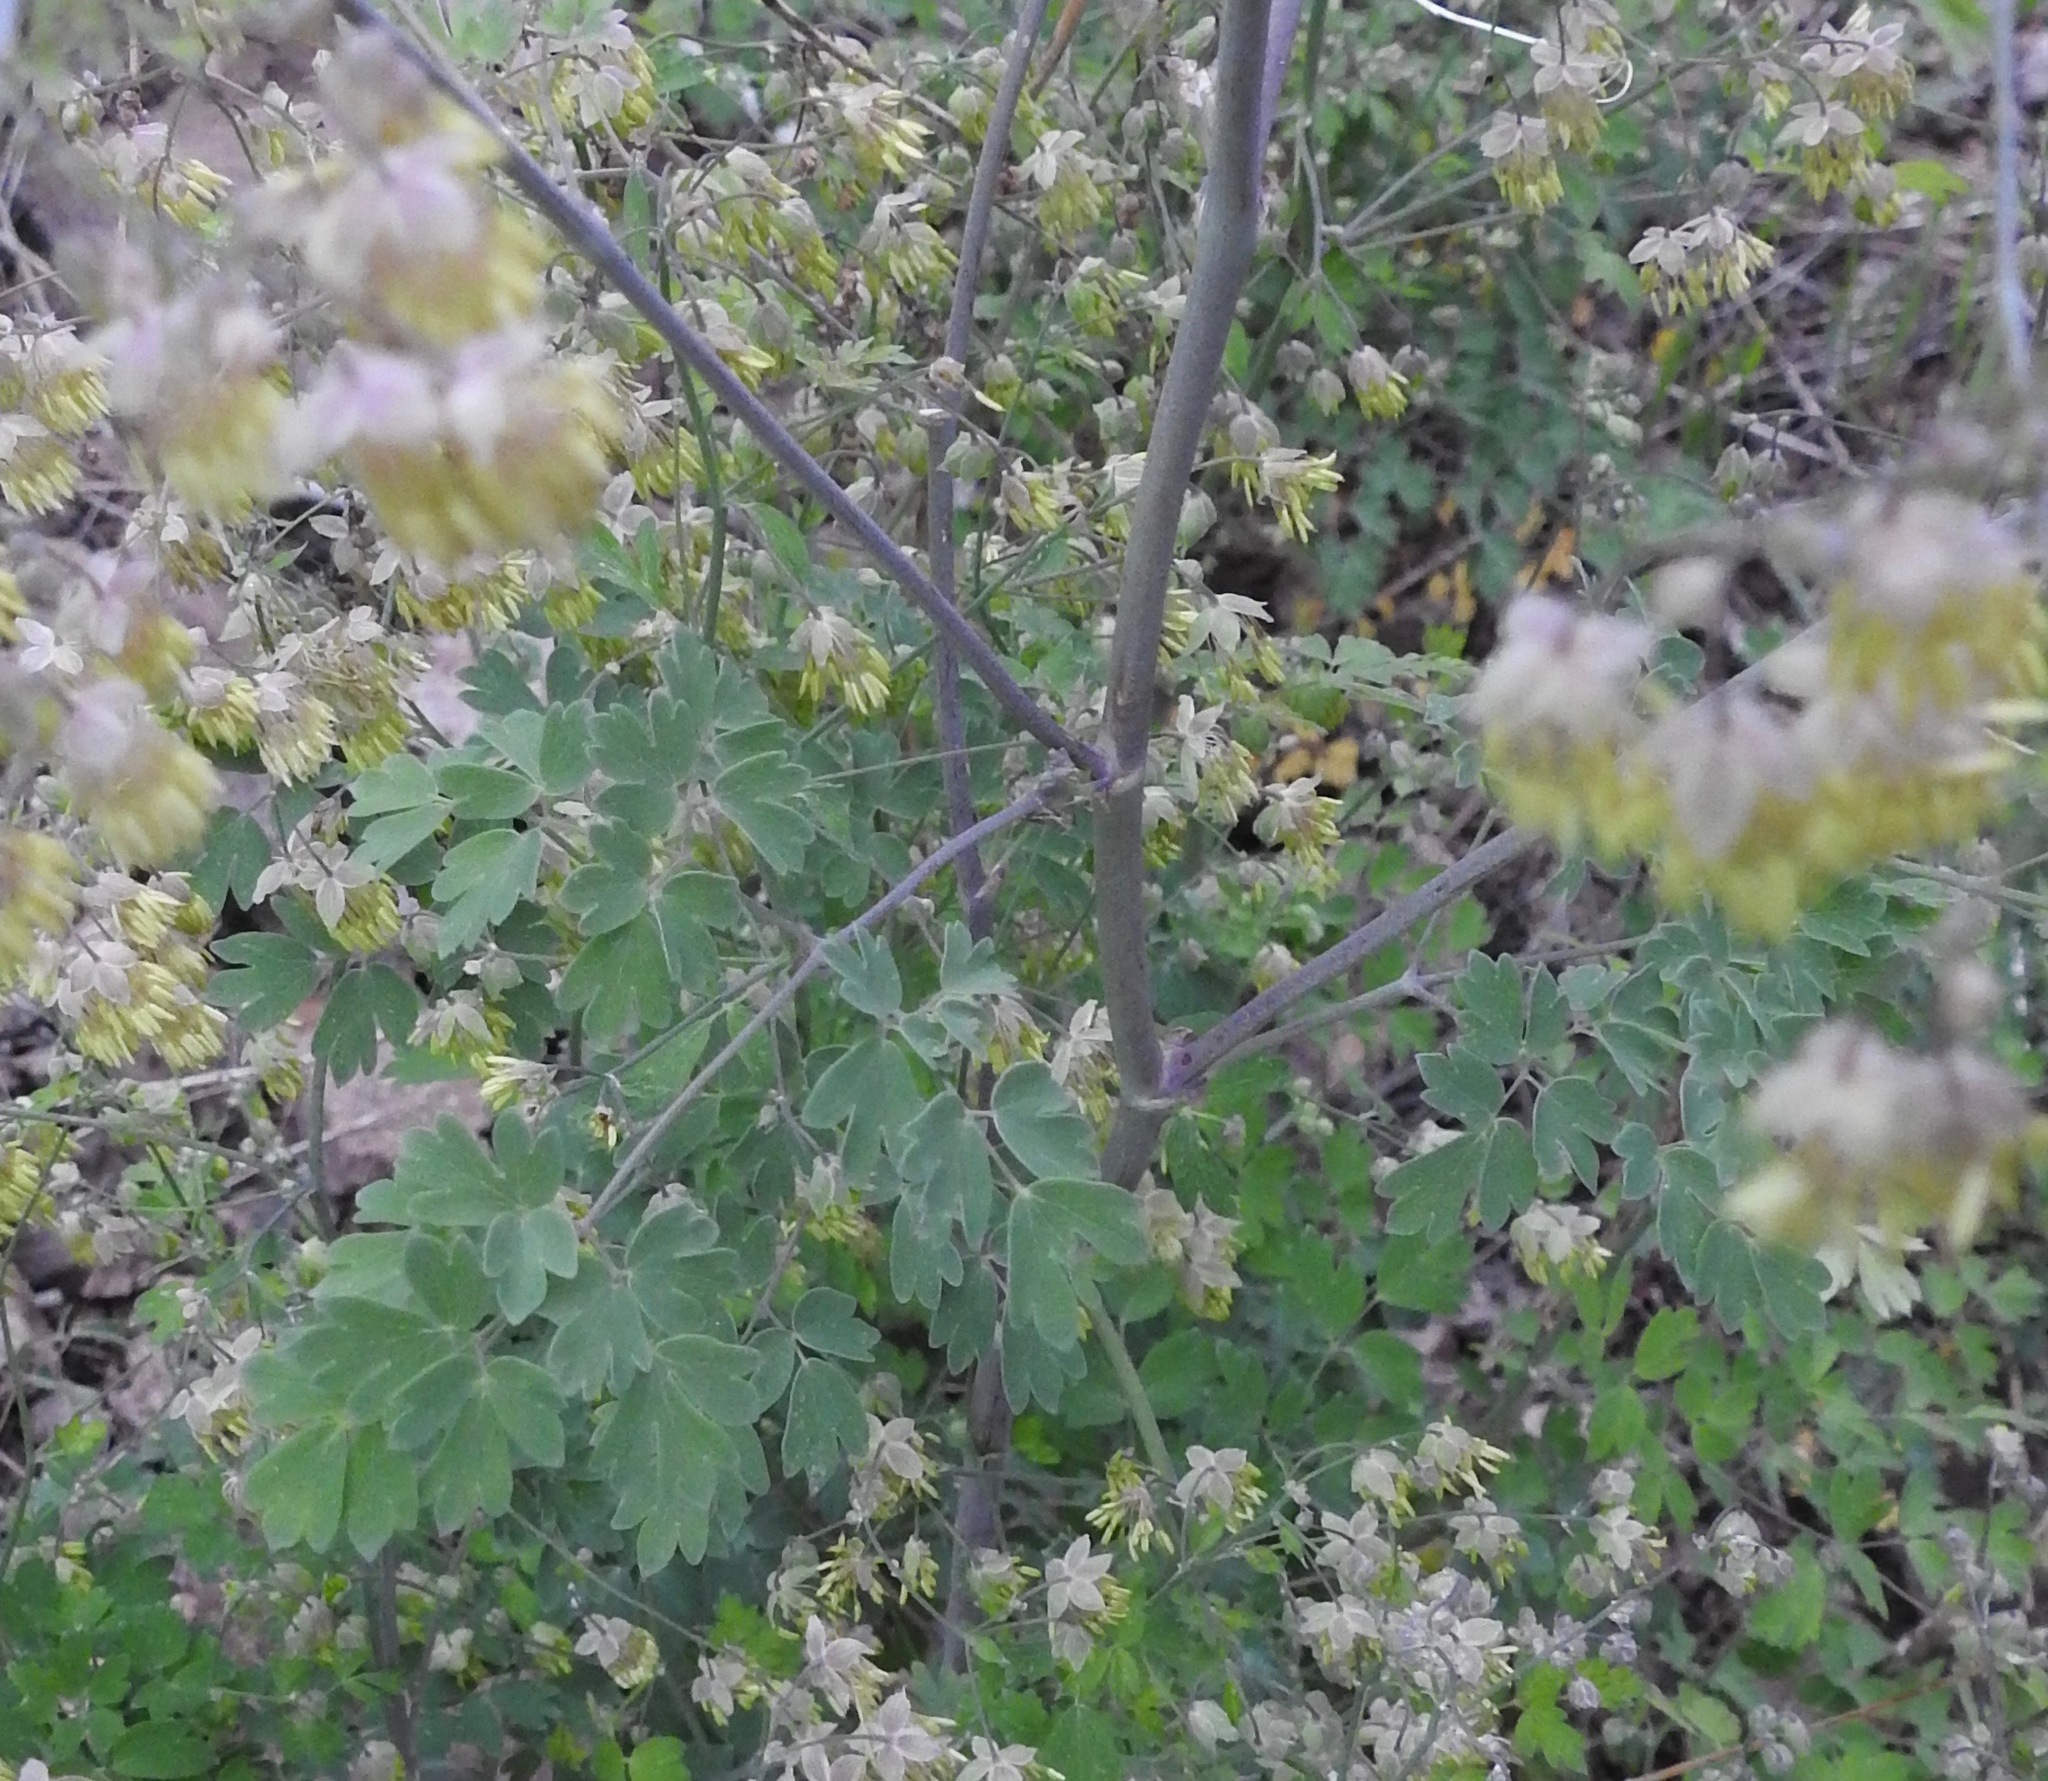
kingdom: Plantae
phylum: Tracheophyta
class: Magnoliopsida
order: Ranunculales
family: Ranunculaceae
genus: Thalictrum
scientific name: Thalictrum fendleri
